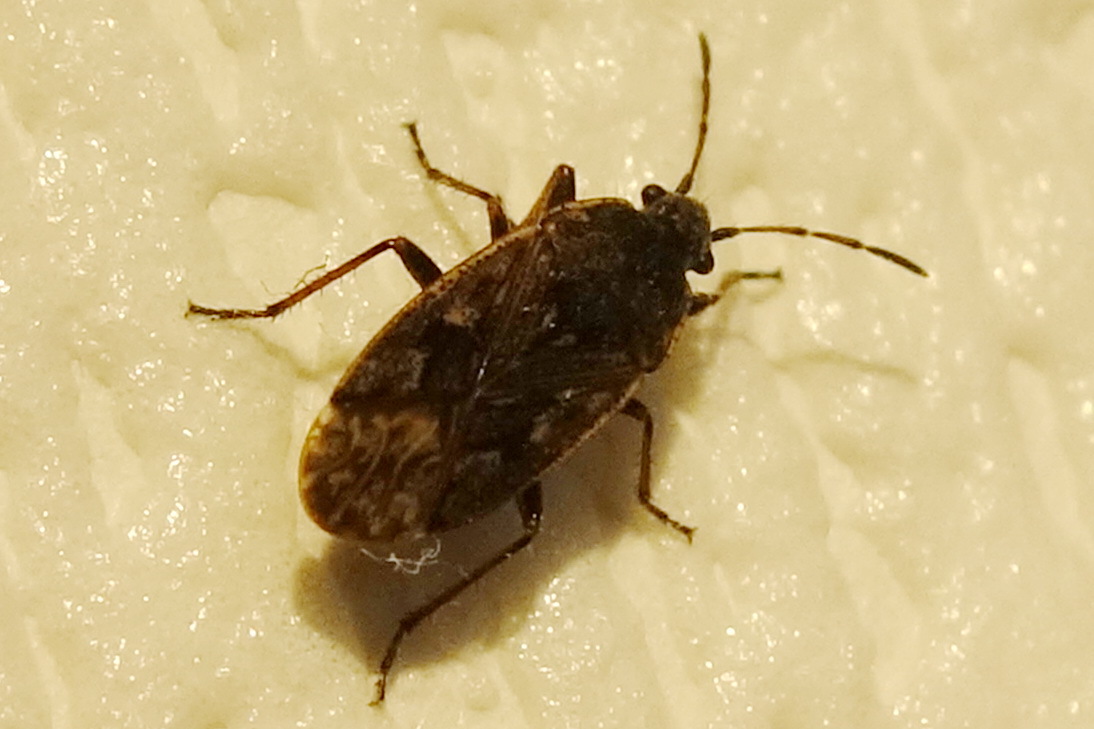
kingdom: Animalia
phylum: Arthropoda
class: Insecta
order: Hemiptera
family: Rhyparochromidae
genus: Sphragisticus
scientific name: Sphragisticus nebulosus
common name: Dirt-colored seed bug
